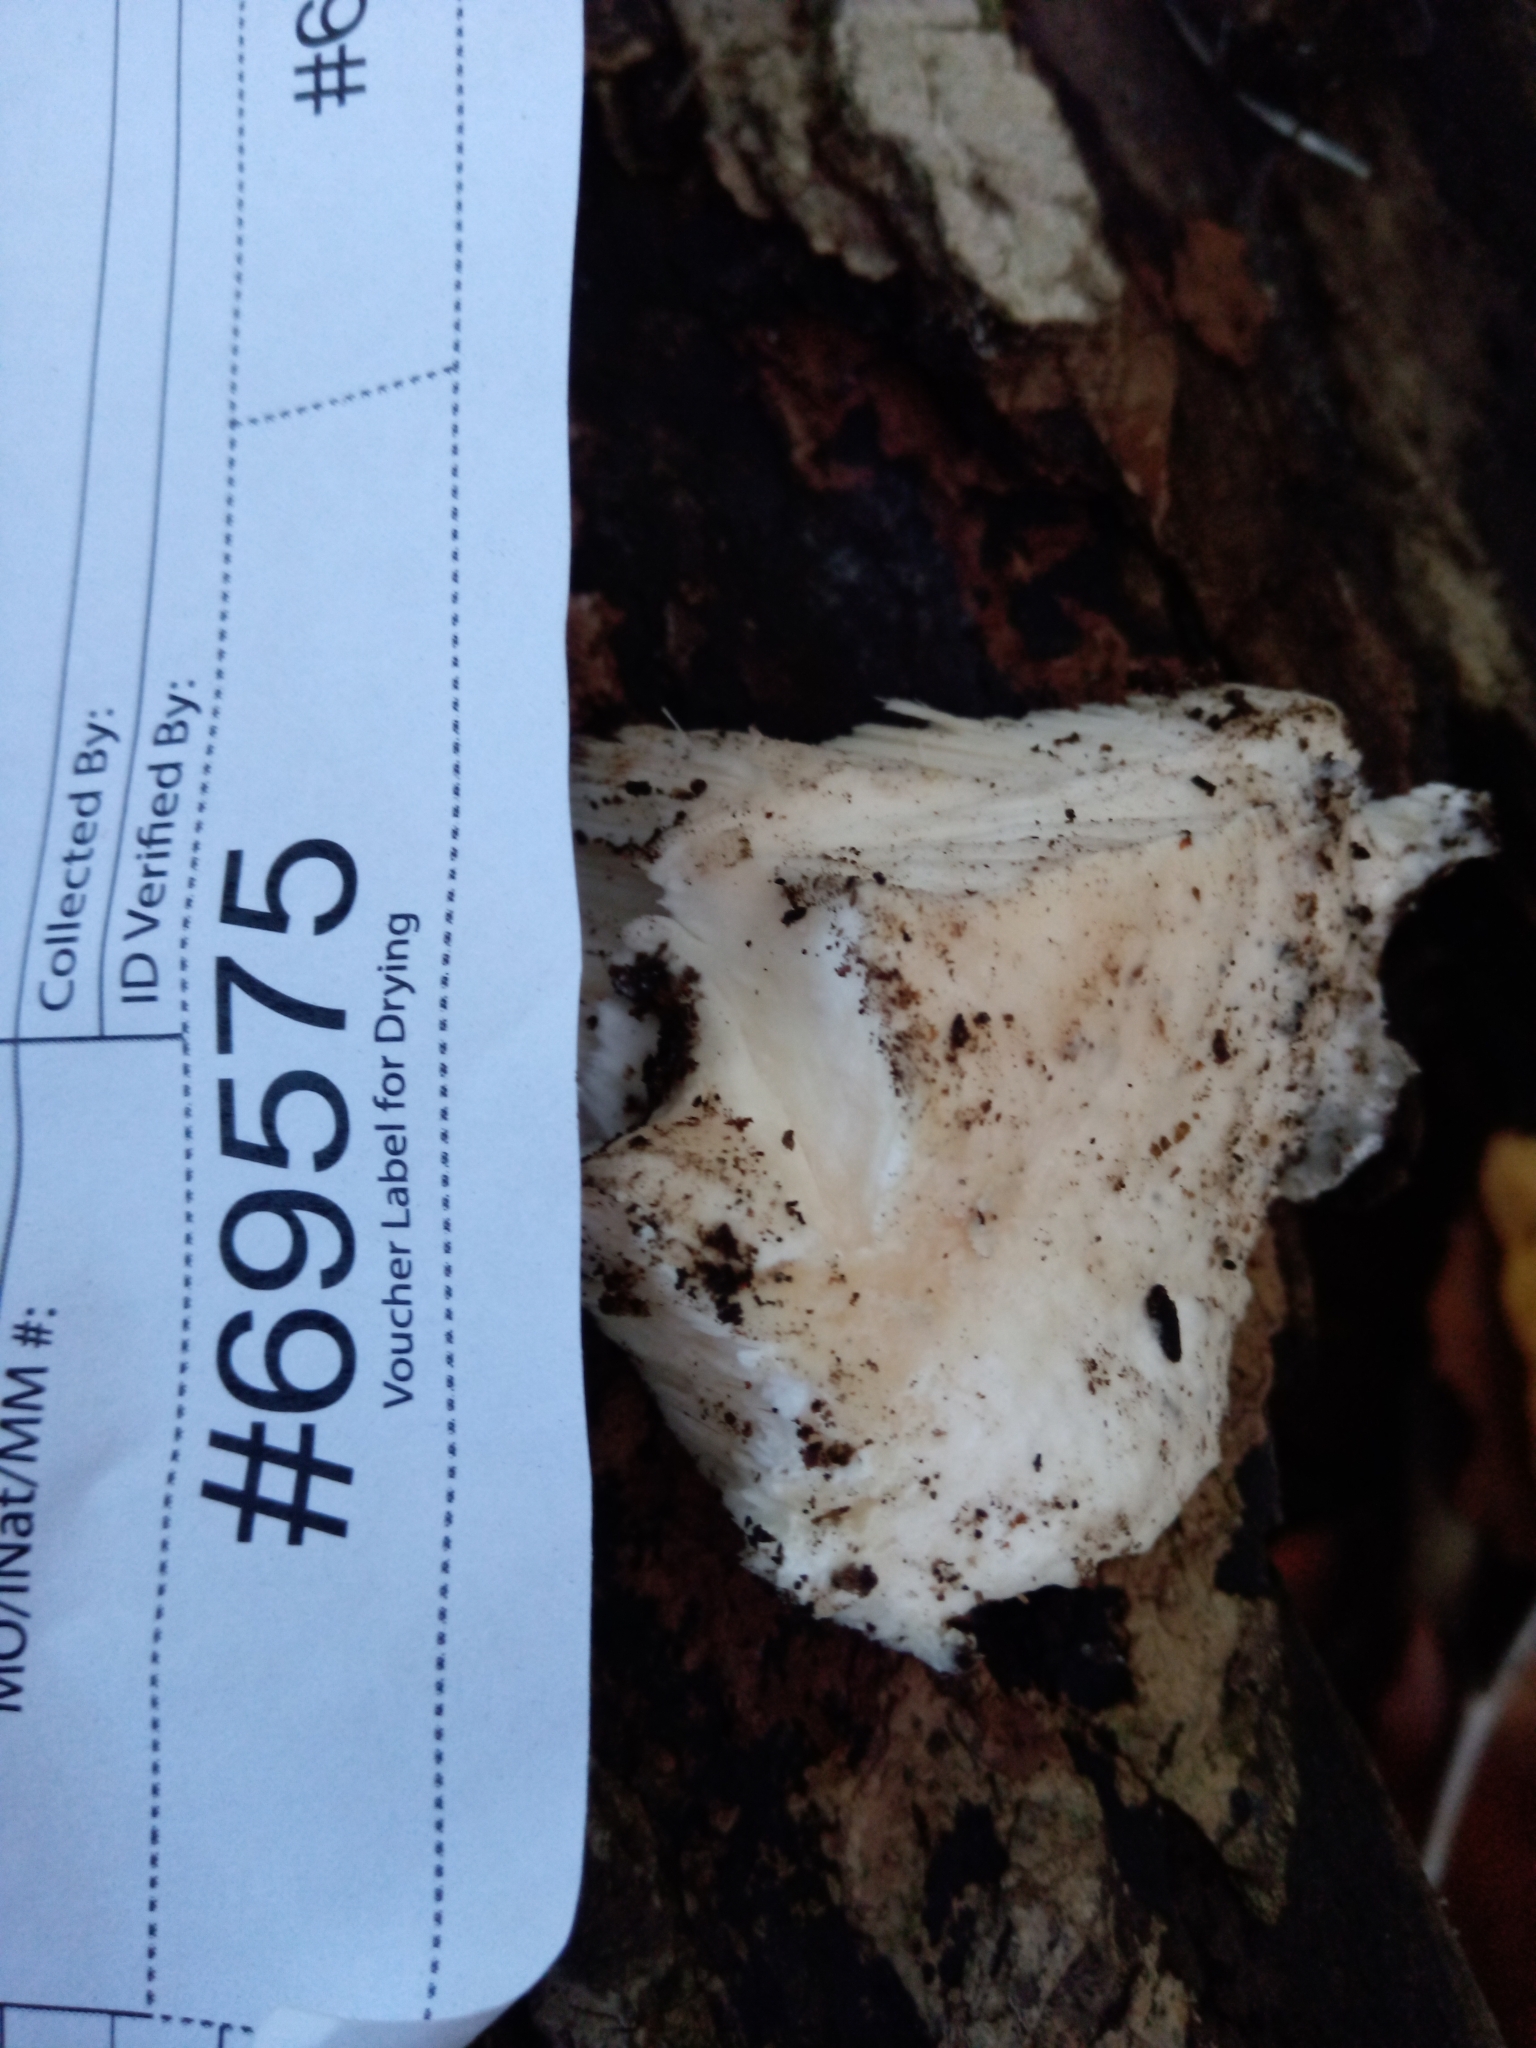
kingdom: Fungi
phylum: Basidiomycota
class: Agaricomycetes
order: Polyporales
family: Meruliaceae
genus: Spongipellis
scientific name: Spongipellis
